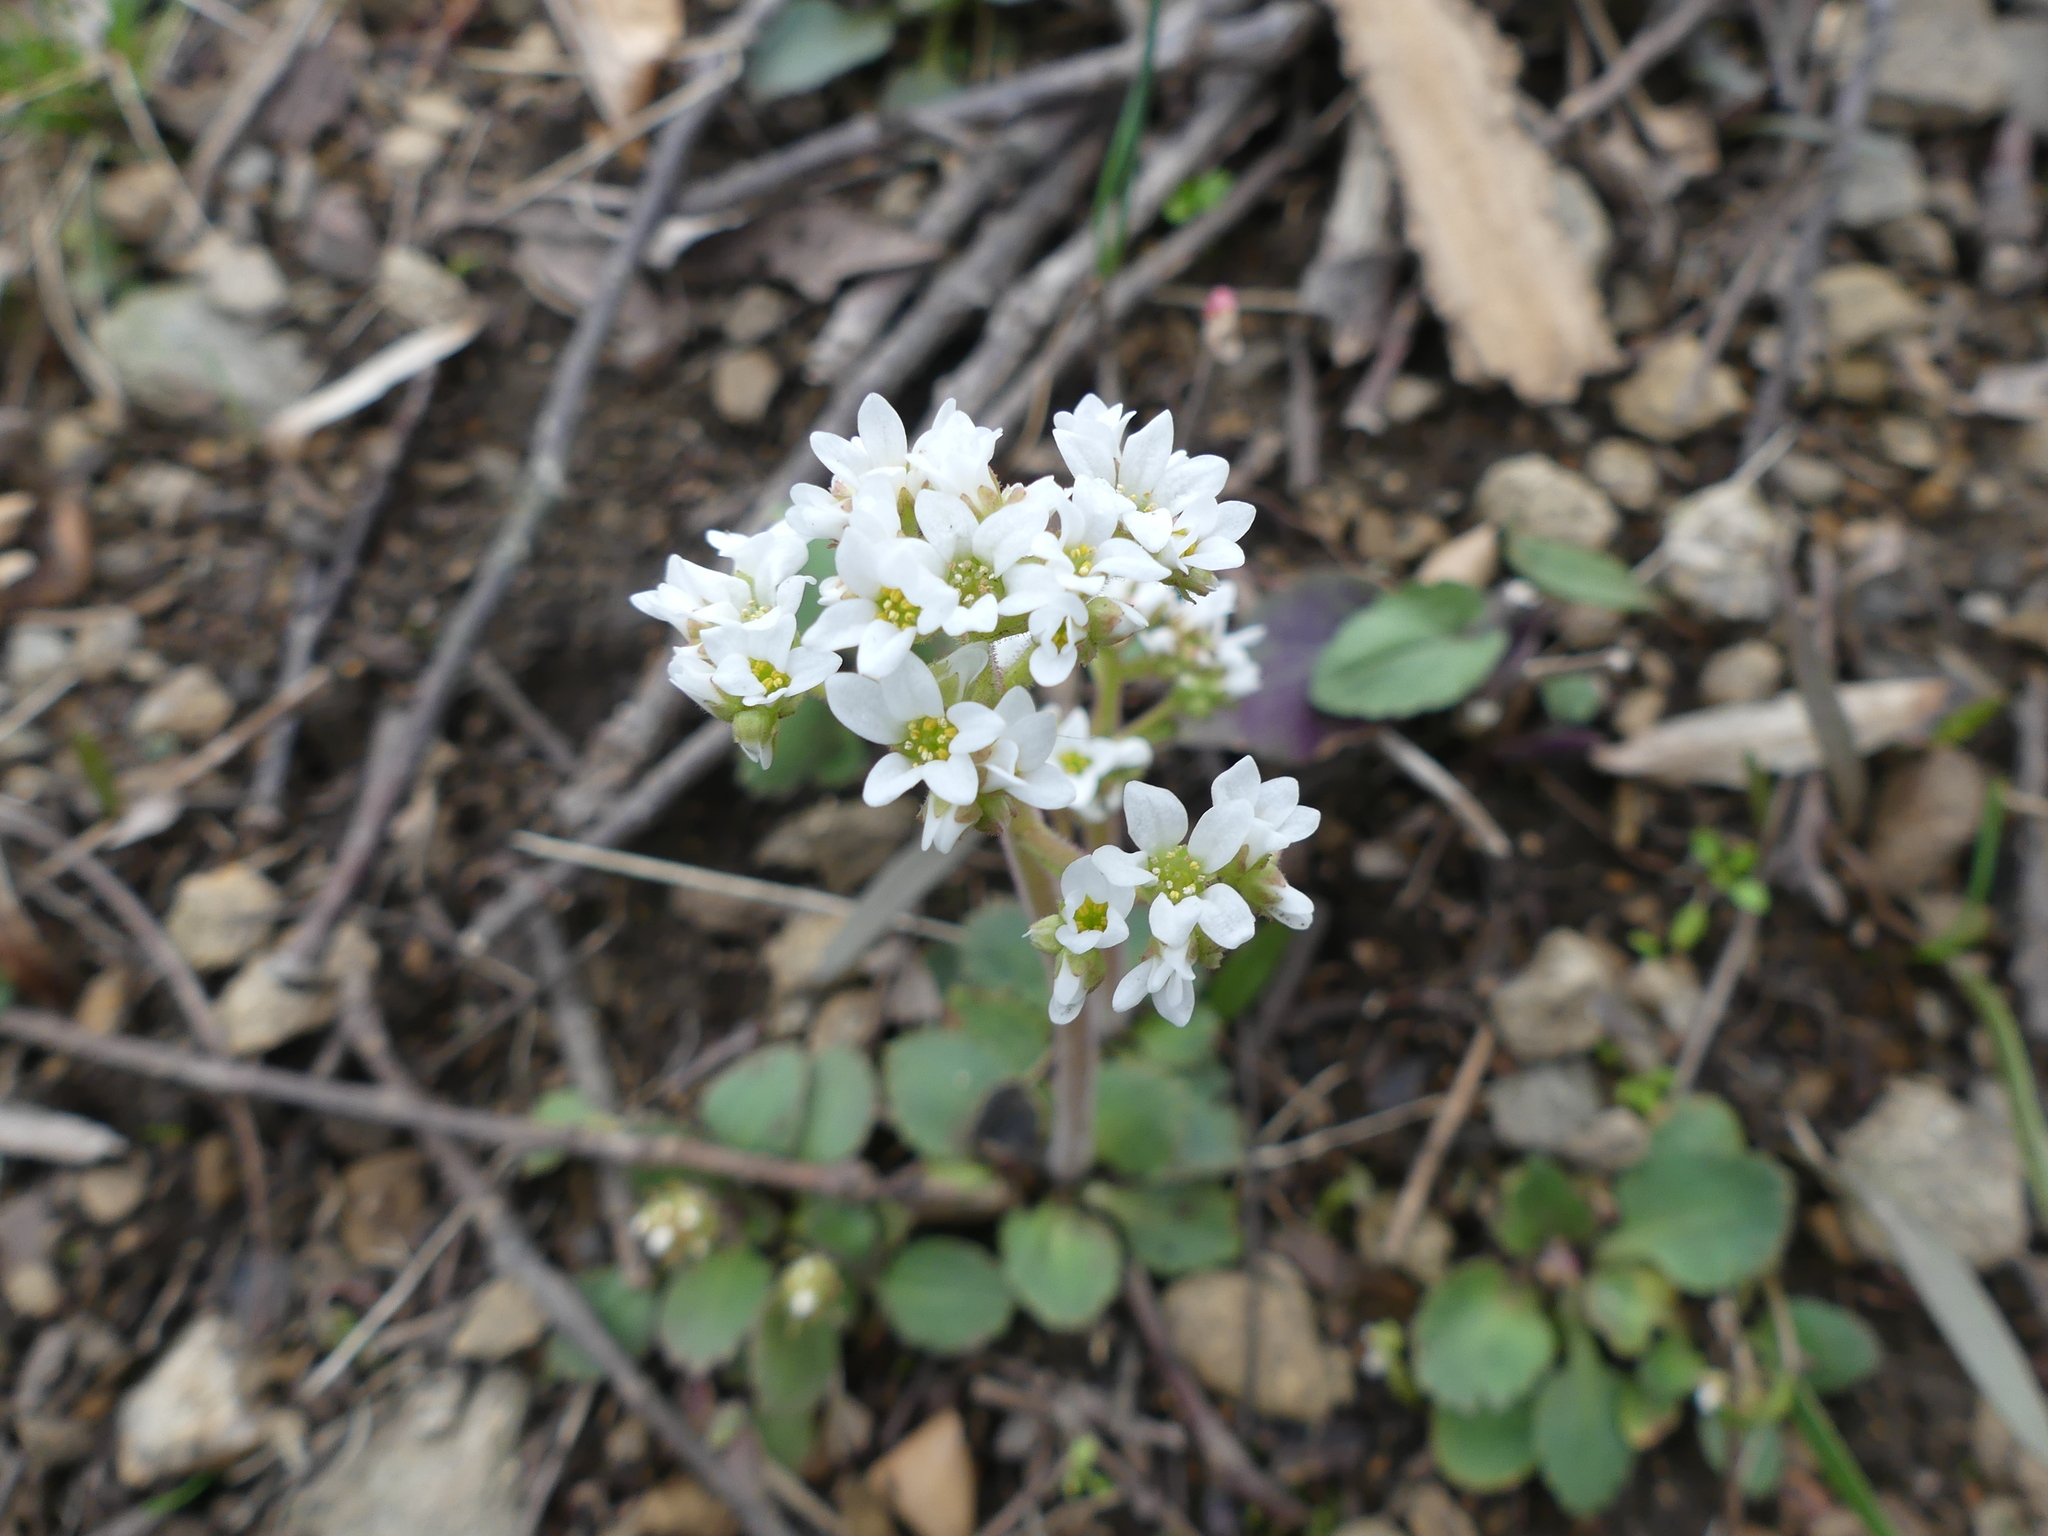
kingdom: Plantae
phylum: Tracheophyta
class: Magnoliopsida
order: Saxifragales
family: Saxifragaceae
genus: Micranthes
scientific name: Micranthes virginiensis
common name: Early saxifrage
